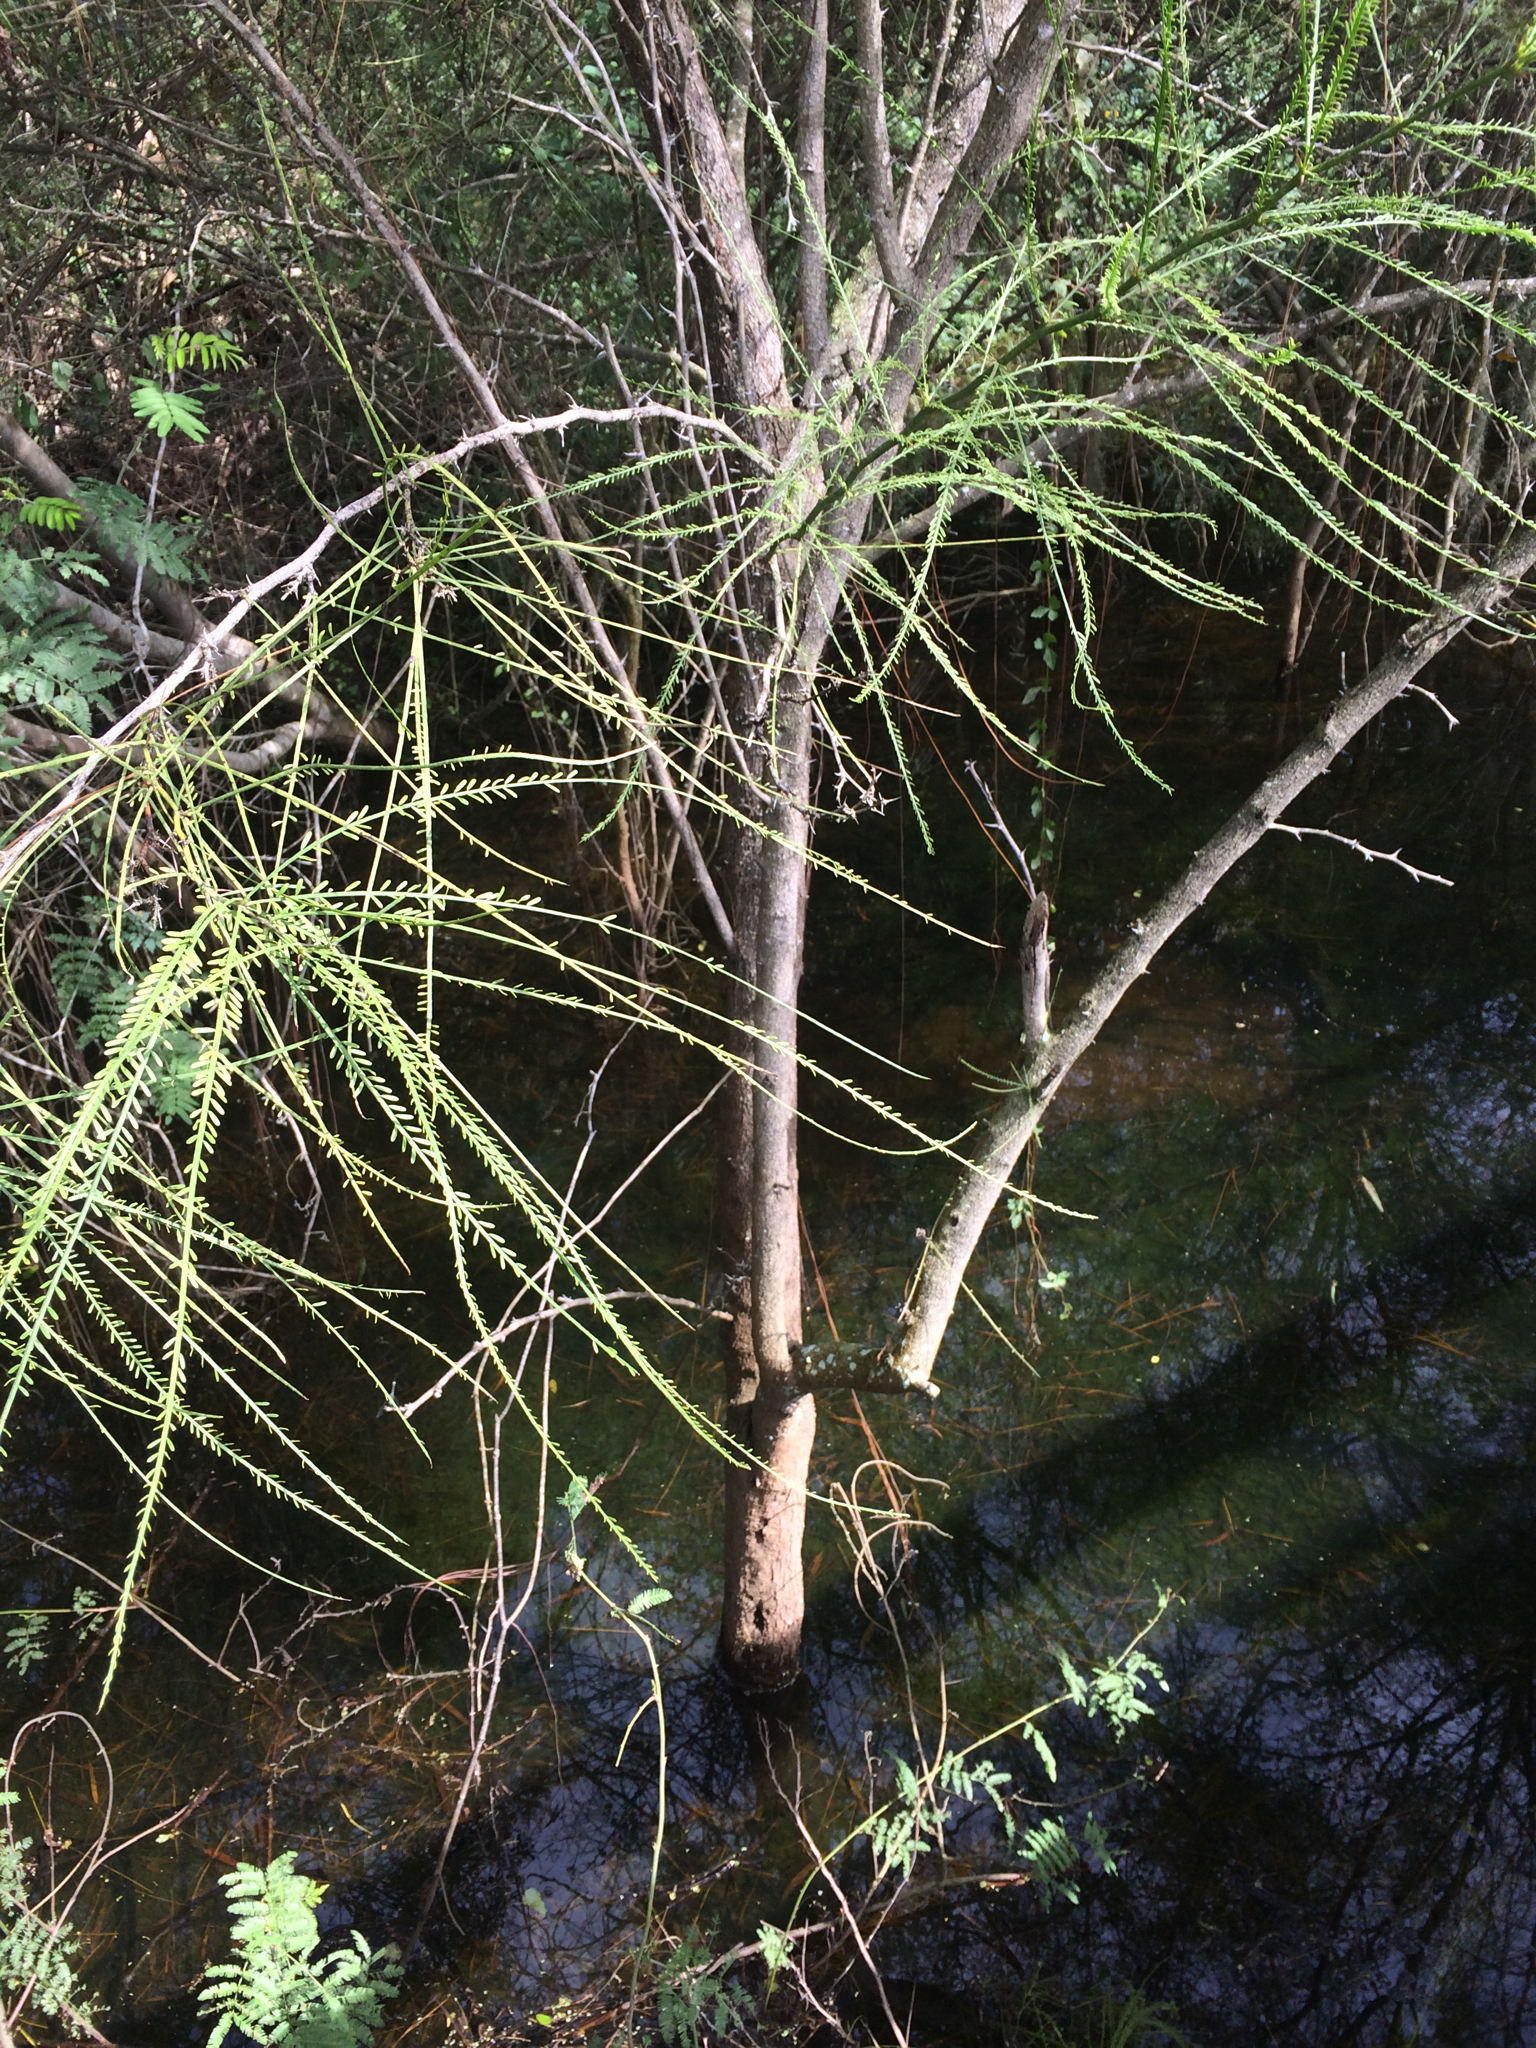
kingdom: Plantae
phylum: Tracheophyta
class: Magnoliopsida
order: Fabales
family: Fabaceae
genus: Parkinsonia
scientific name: Parkinsonia aculeata
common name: Jerusalem thorn
